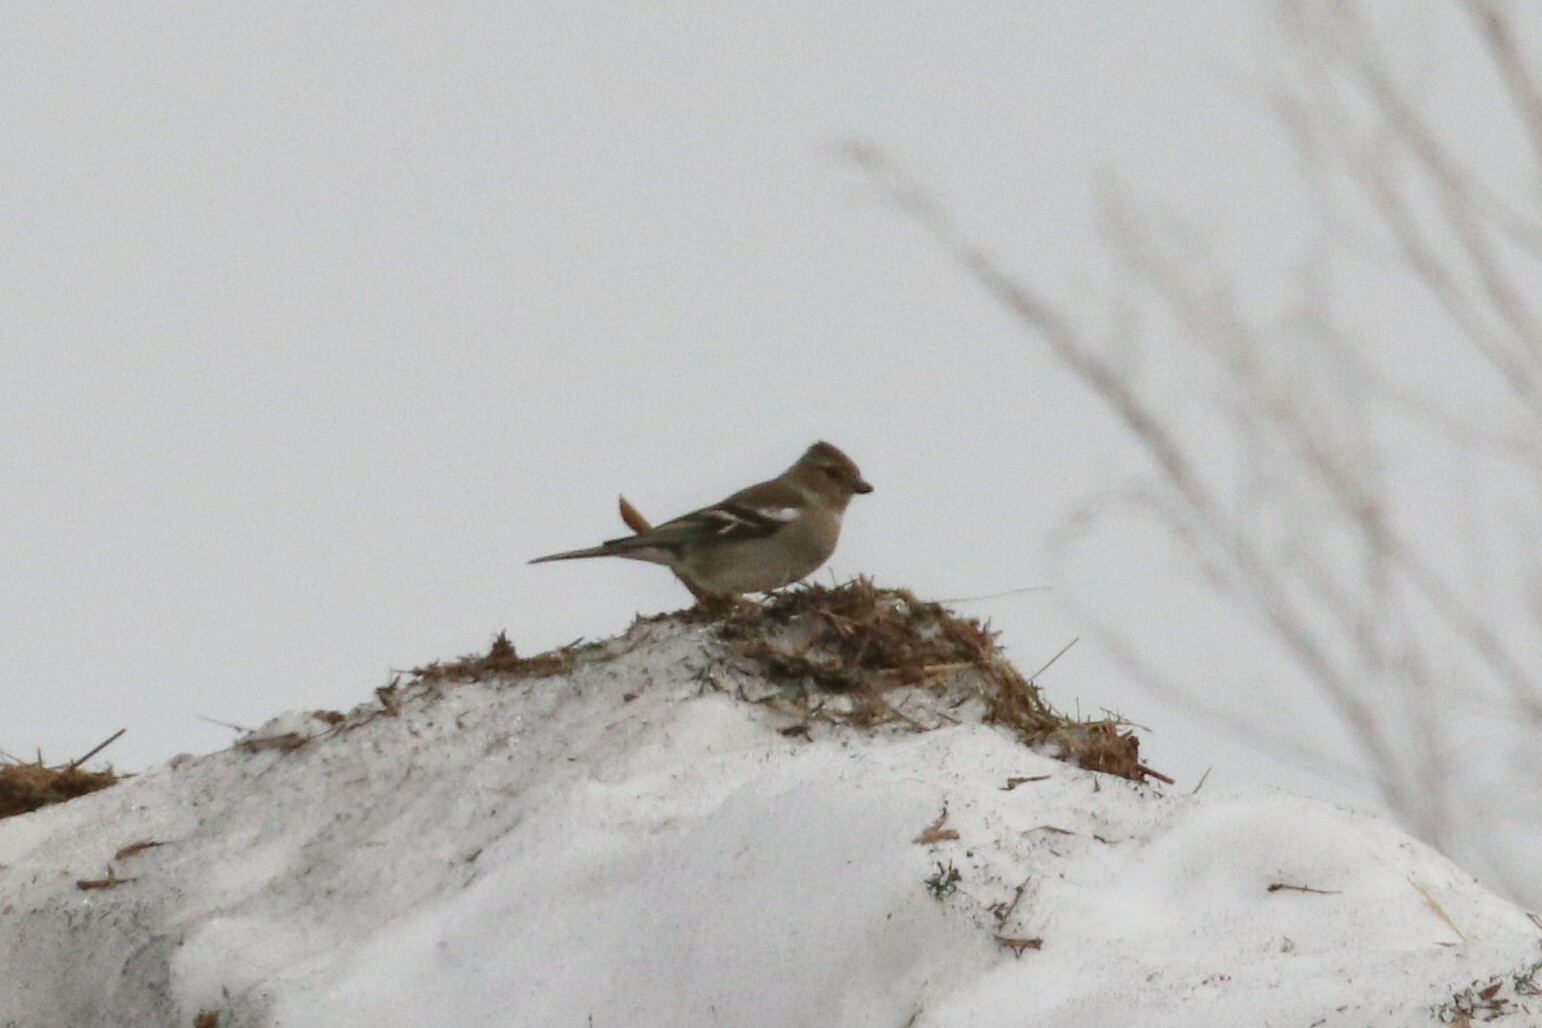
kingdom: Animalia
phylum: Chordata
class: Aves
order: Passeriformes
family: Fringillidae
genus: Fringilla
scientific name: Fringilla coelebs
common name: Common chaffinch
